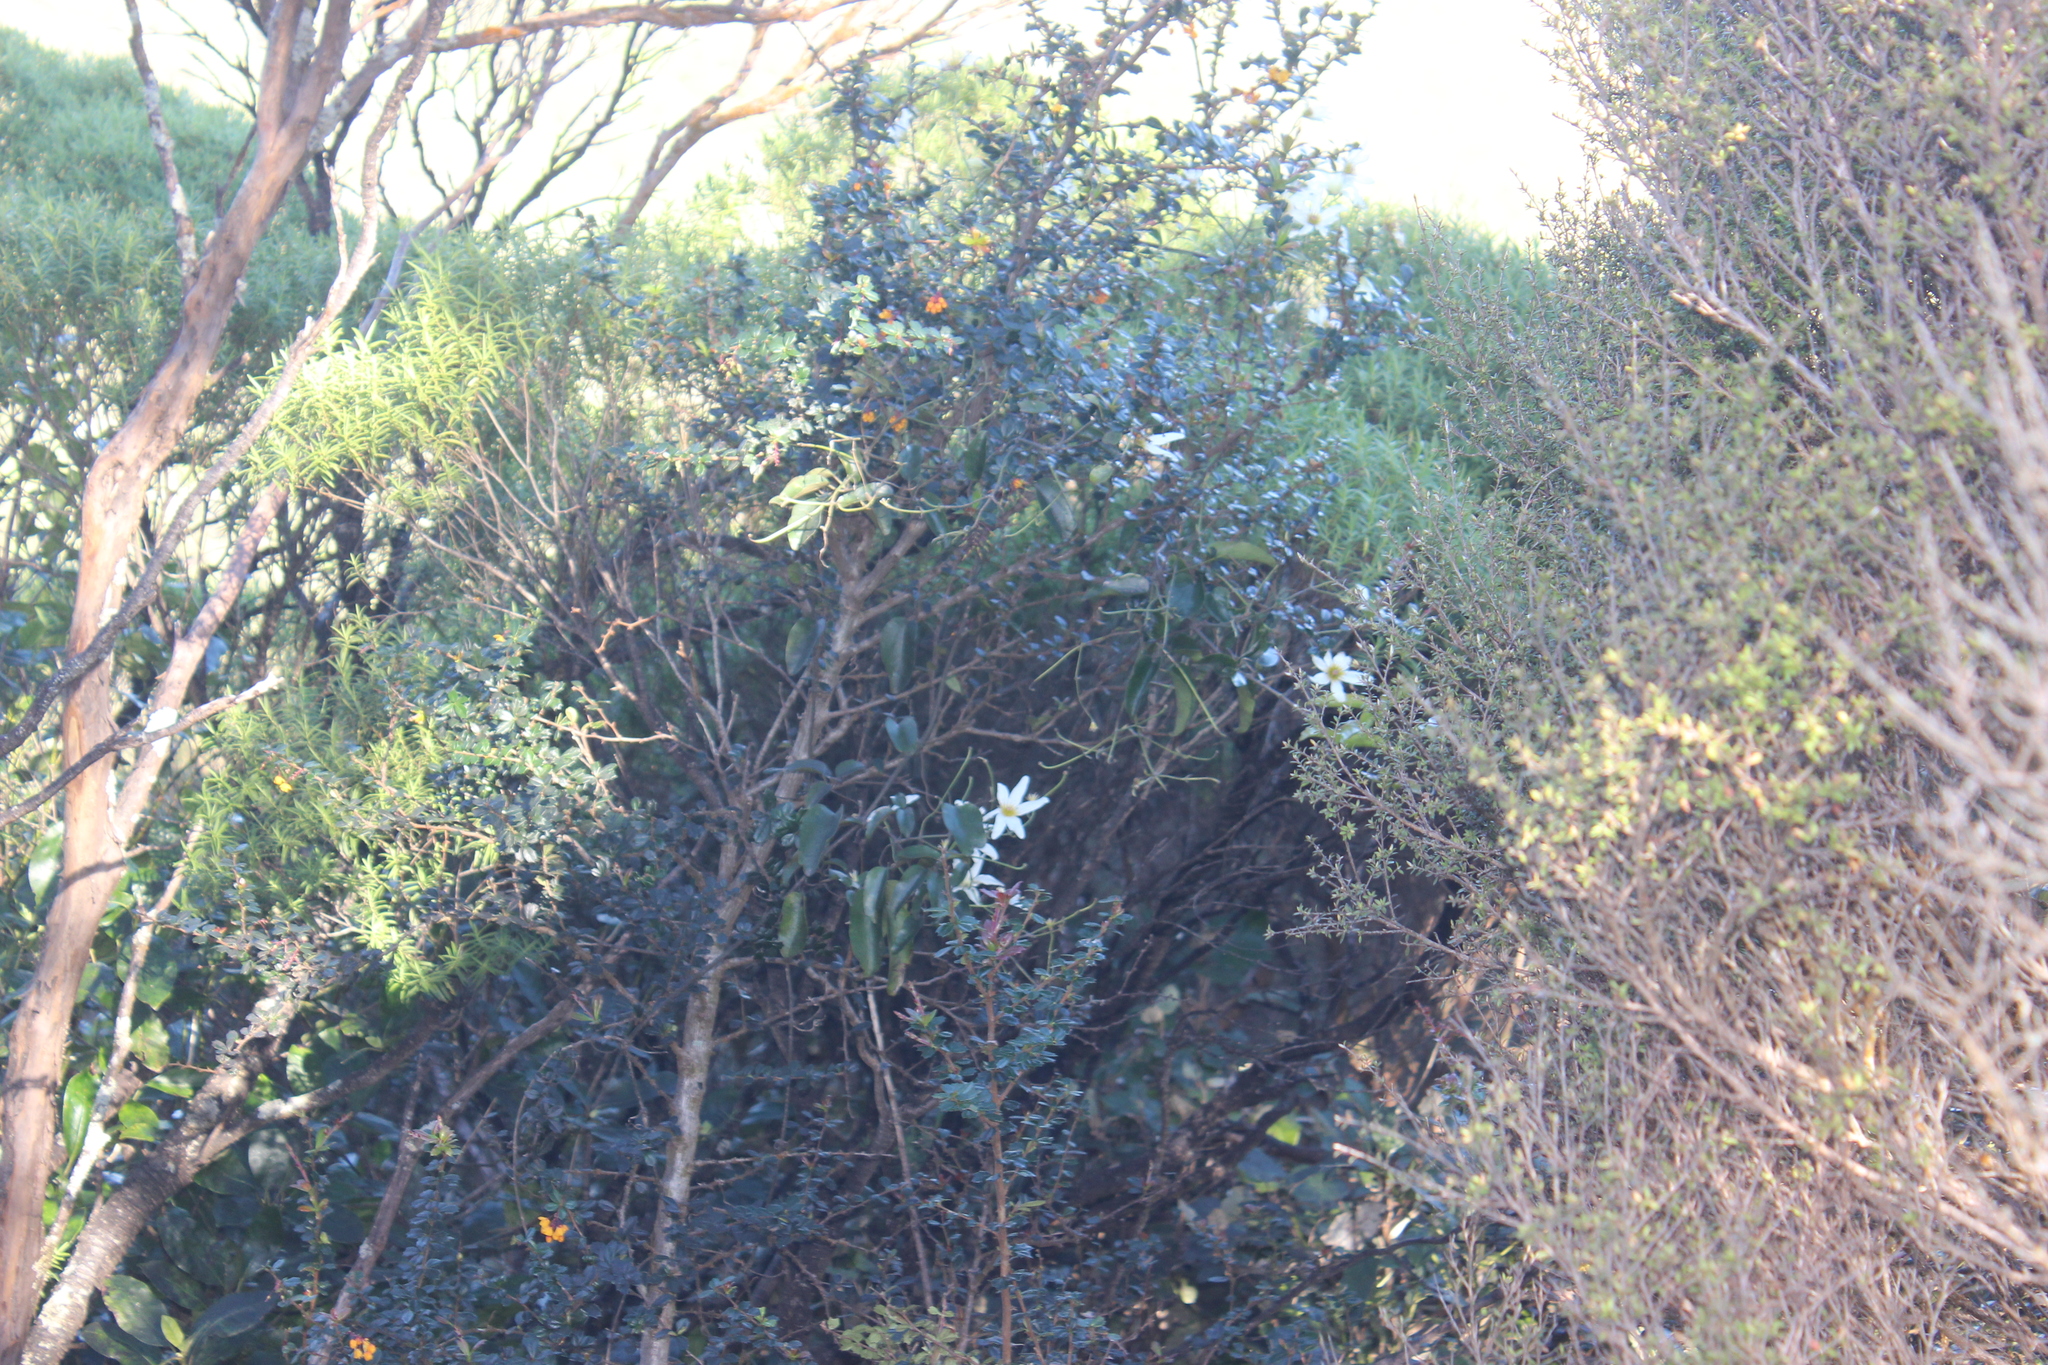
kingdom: Plantae
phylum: Tracheophyta
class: Magnoliopsida
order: Ranunculales
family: Berberidaceae
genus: Berberis
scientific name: Berberis darwinii
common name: Darwin's barberry
